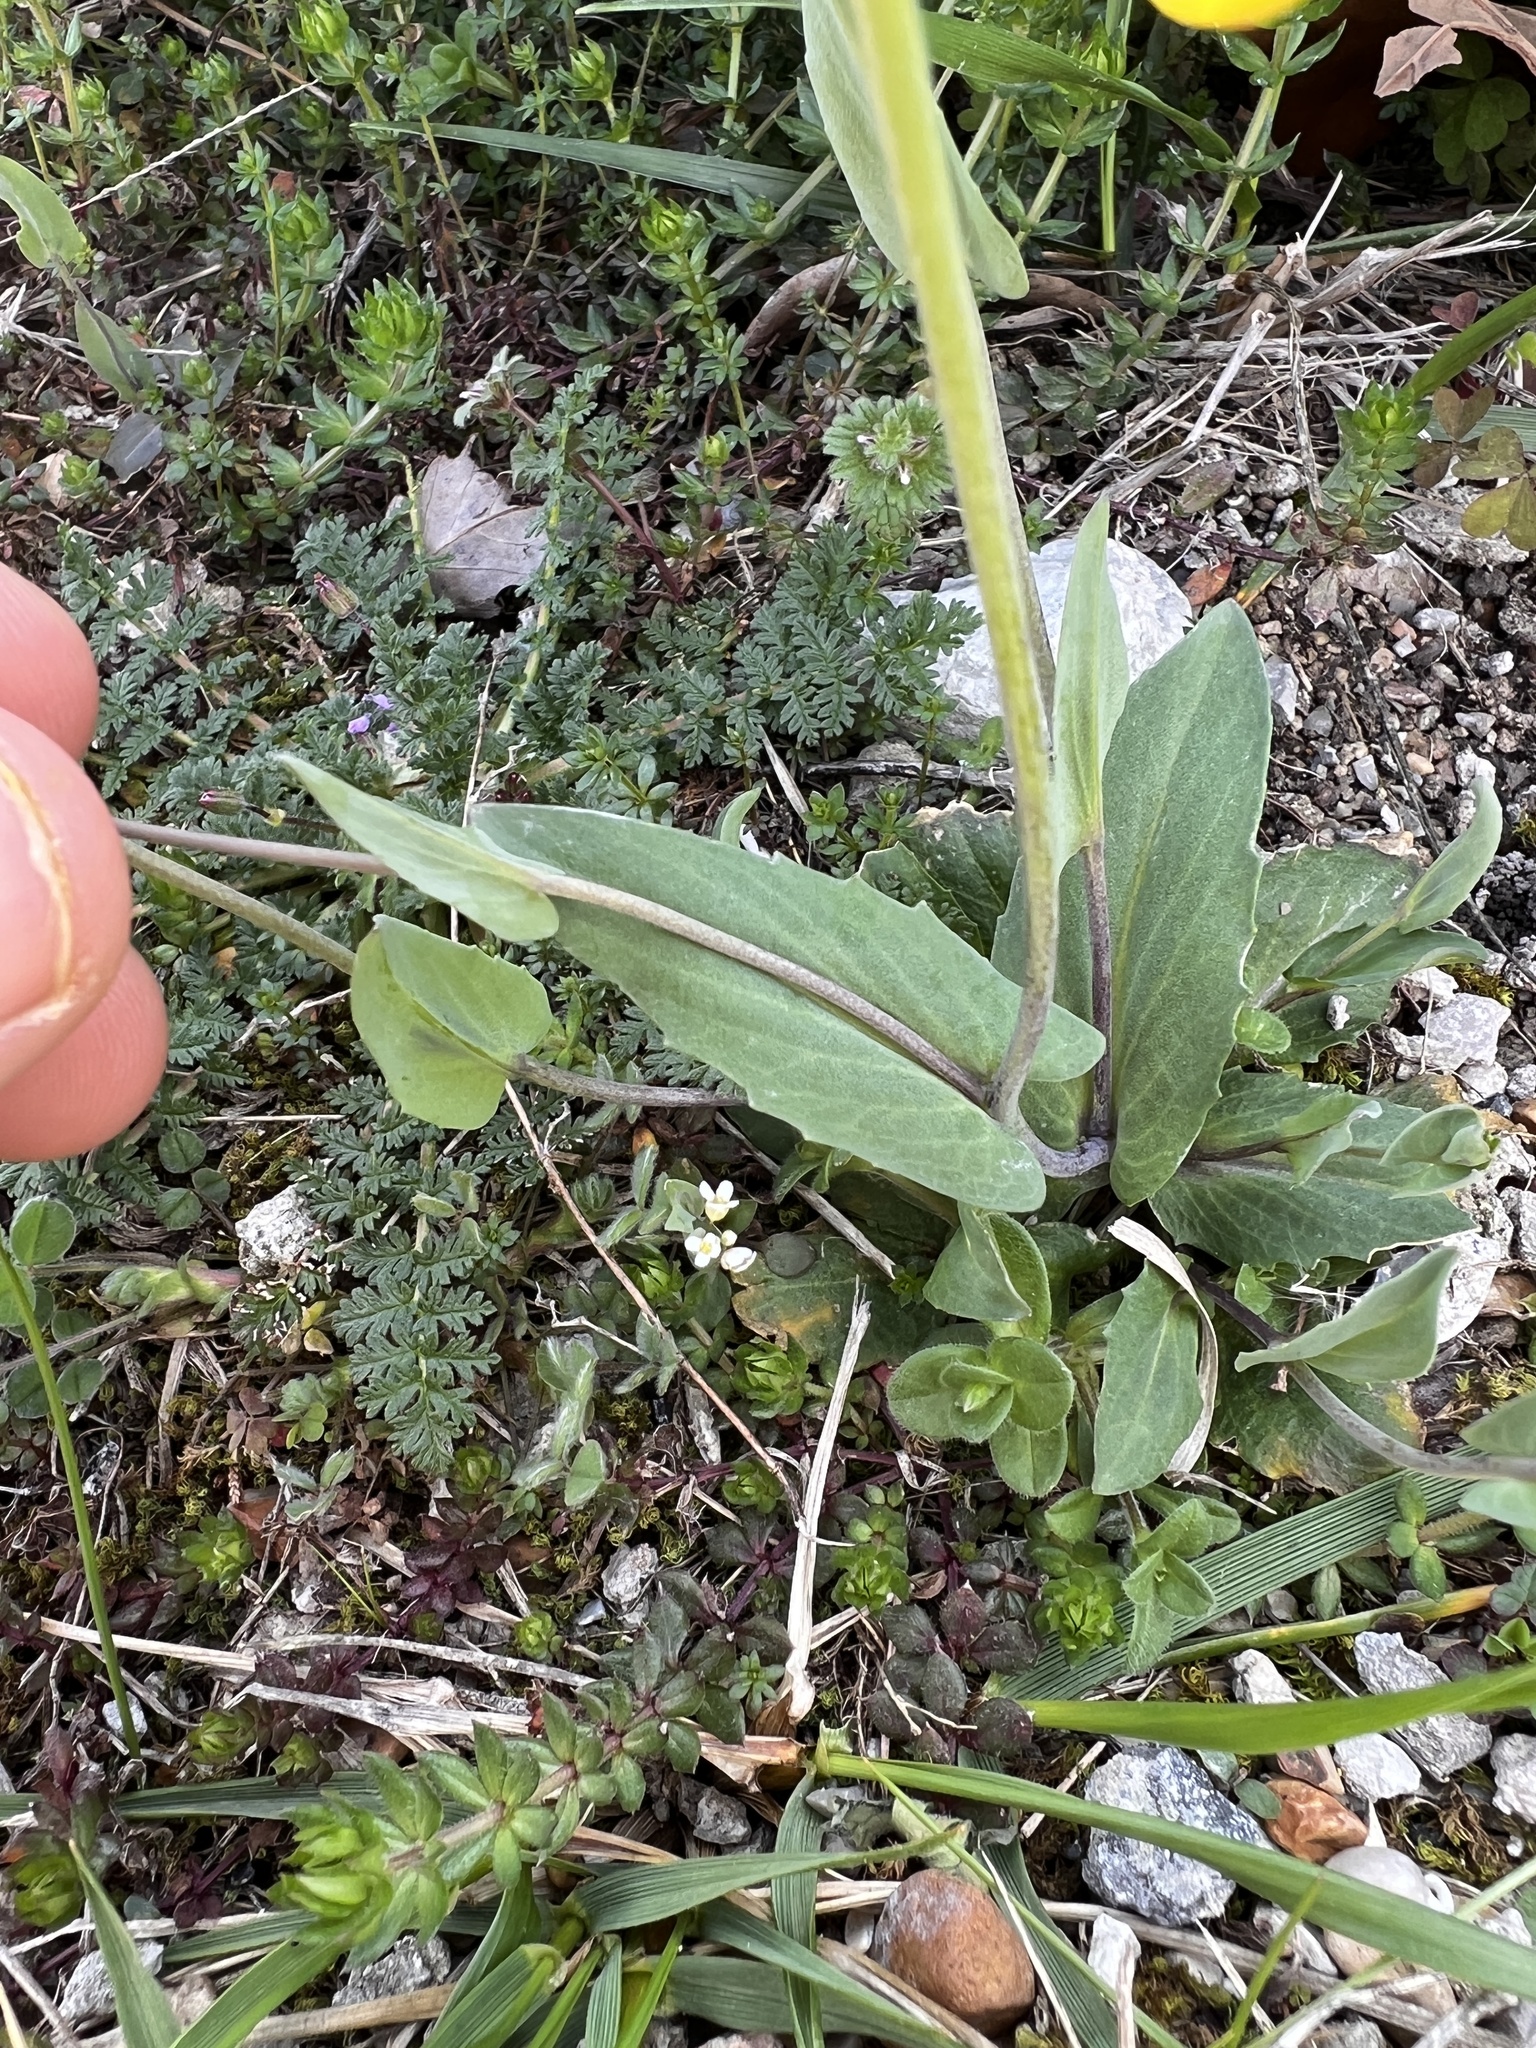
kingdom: Plantae
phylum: Tracheophyta
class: Magnoliopsida
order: Brassicales
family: Brassicaceae
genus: Noccaea
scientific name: Noccaea perfoliata
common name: Perfoliate pennycress
